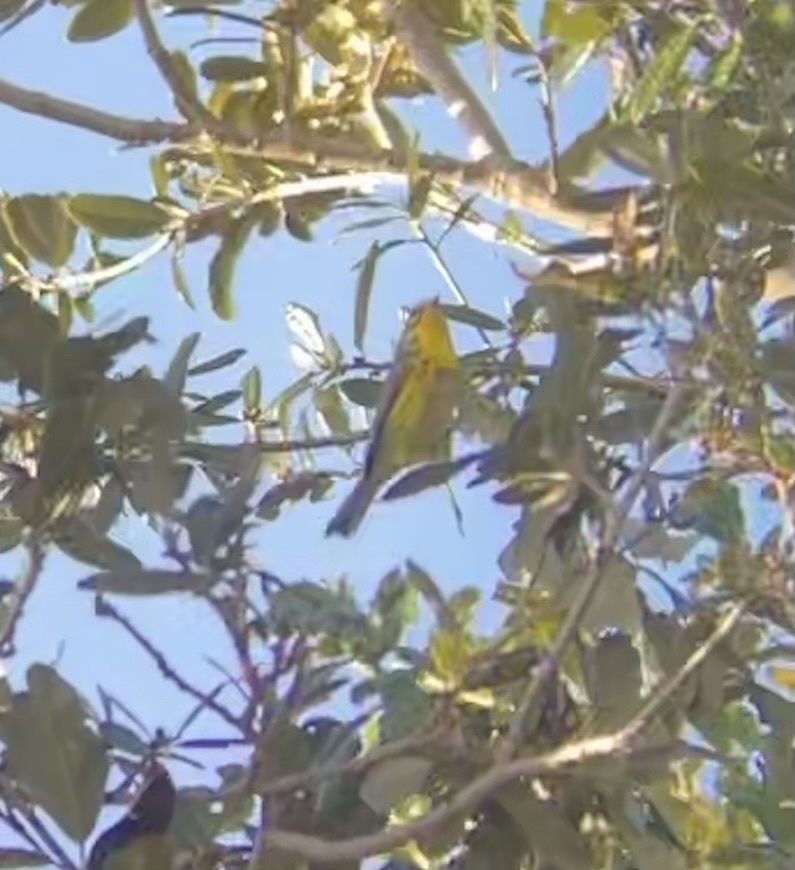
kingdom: Animalia
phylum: Chordata
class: Aves
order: Passeriformes
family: Parulidae
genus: Setophaga
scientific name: Setophaga discolor
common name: Prairie warbler
